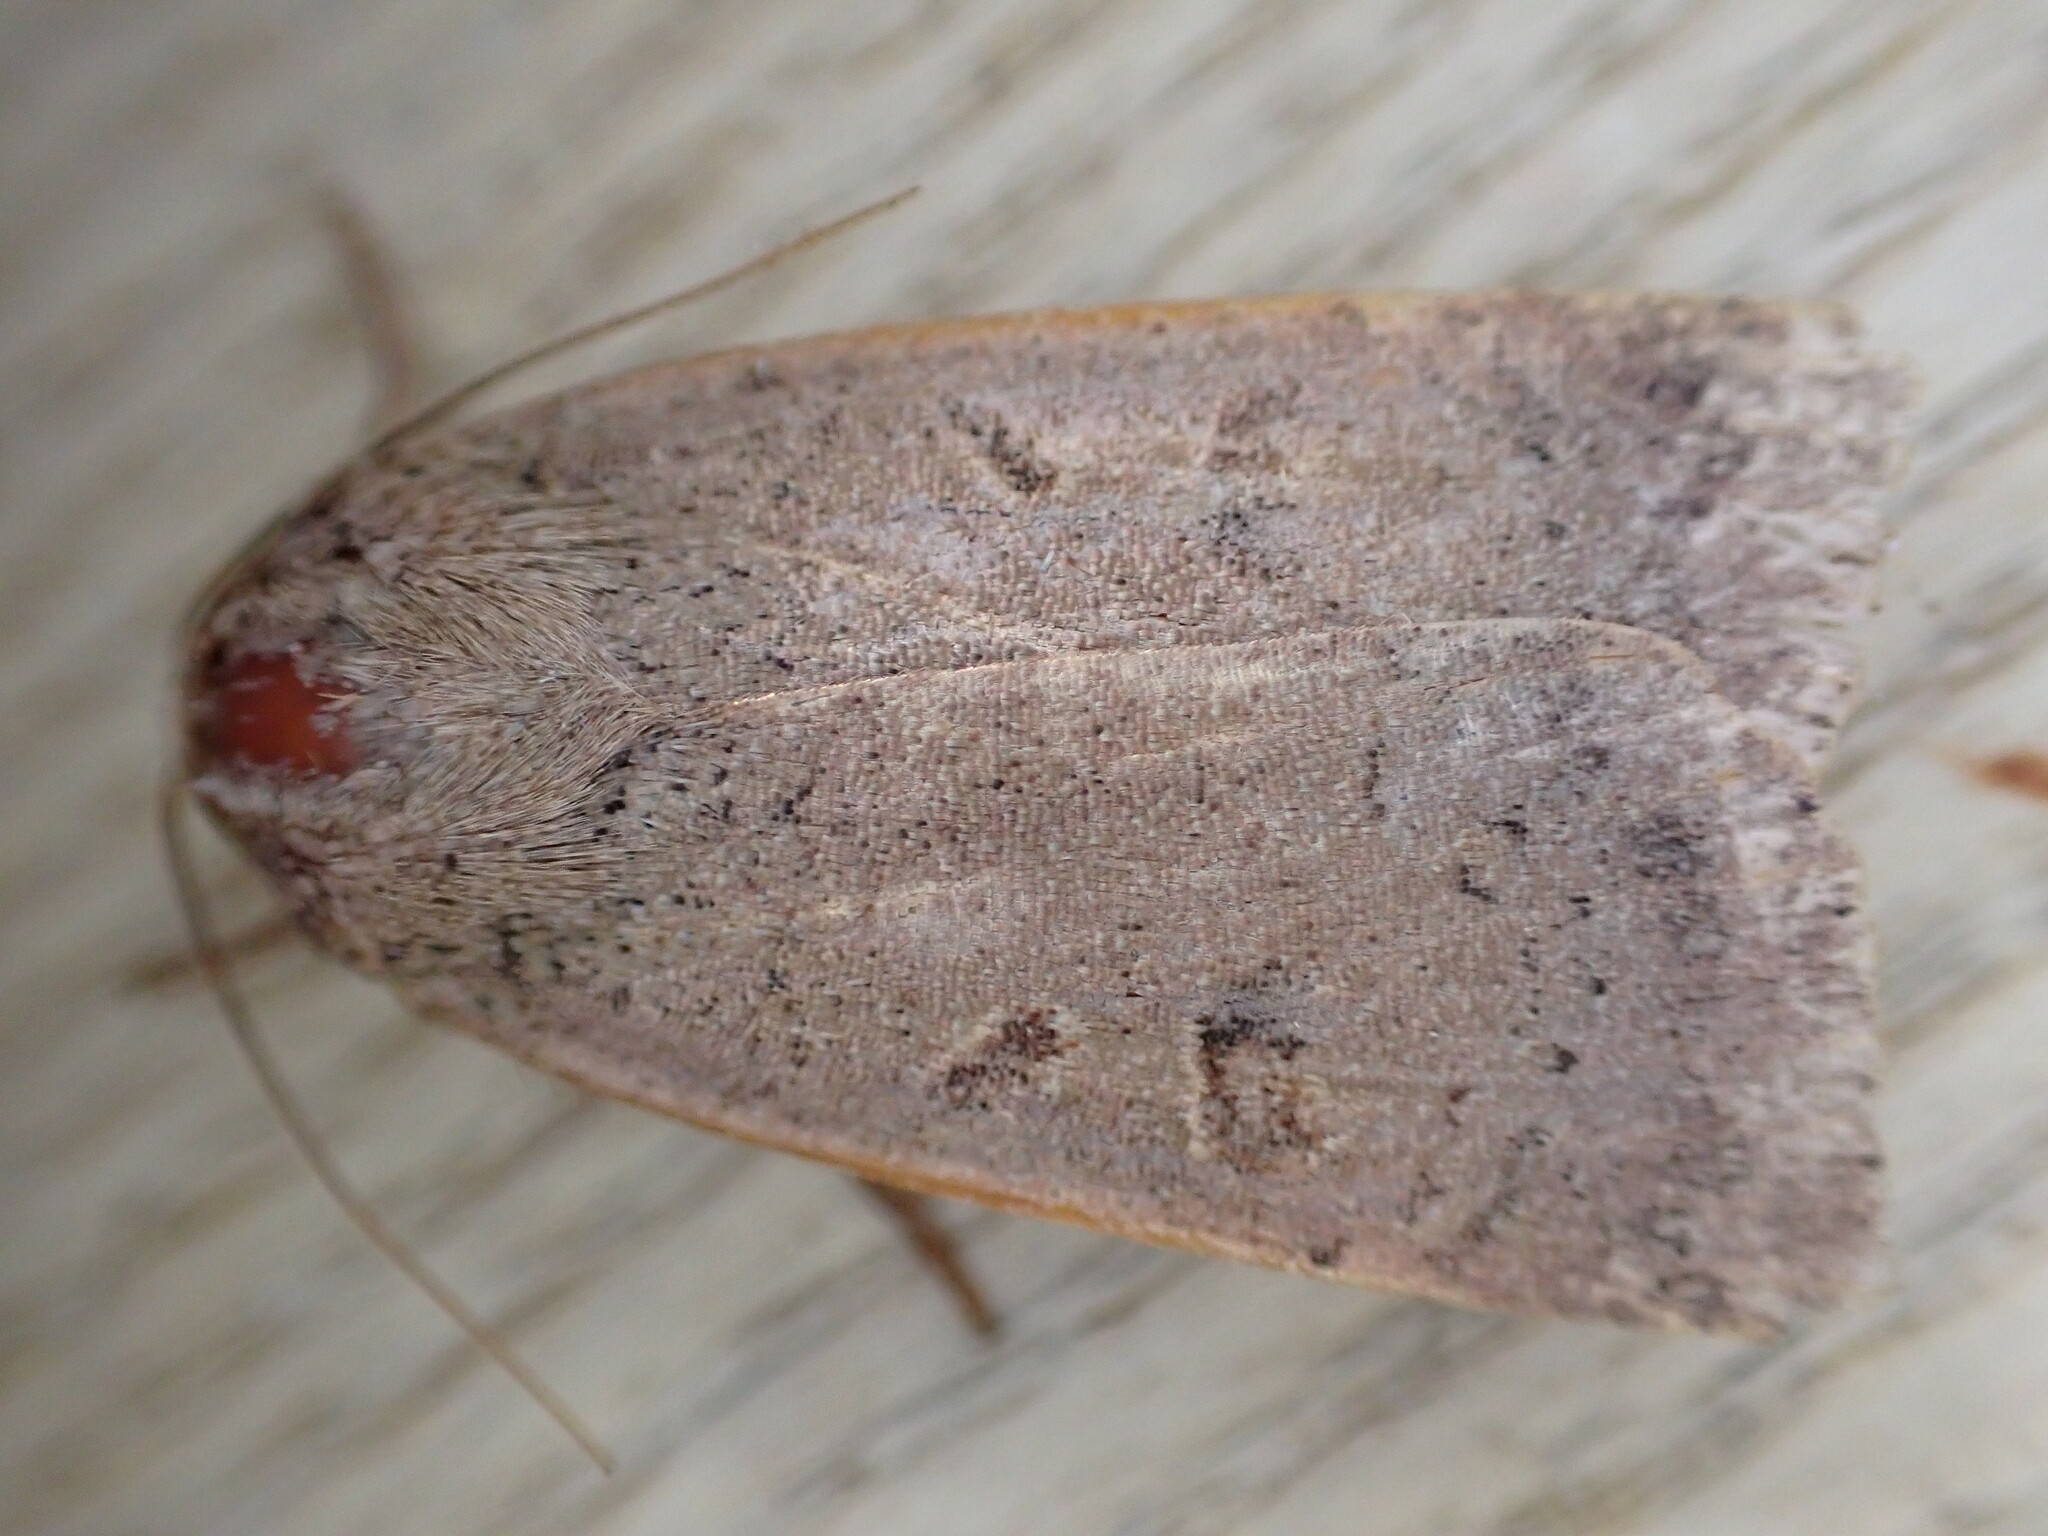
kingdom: Animalia
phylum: Arthropoda
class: Insecta
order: Lepidoptera
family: Noctuidae
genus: Noctua
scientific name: Noctua comes
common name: Lesser yellow underwing
